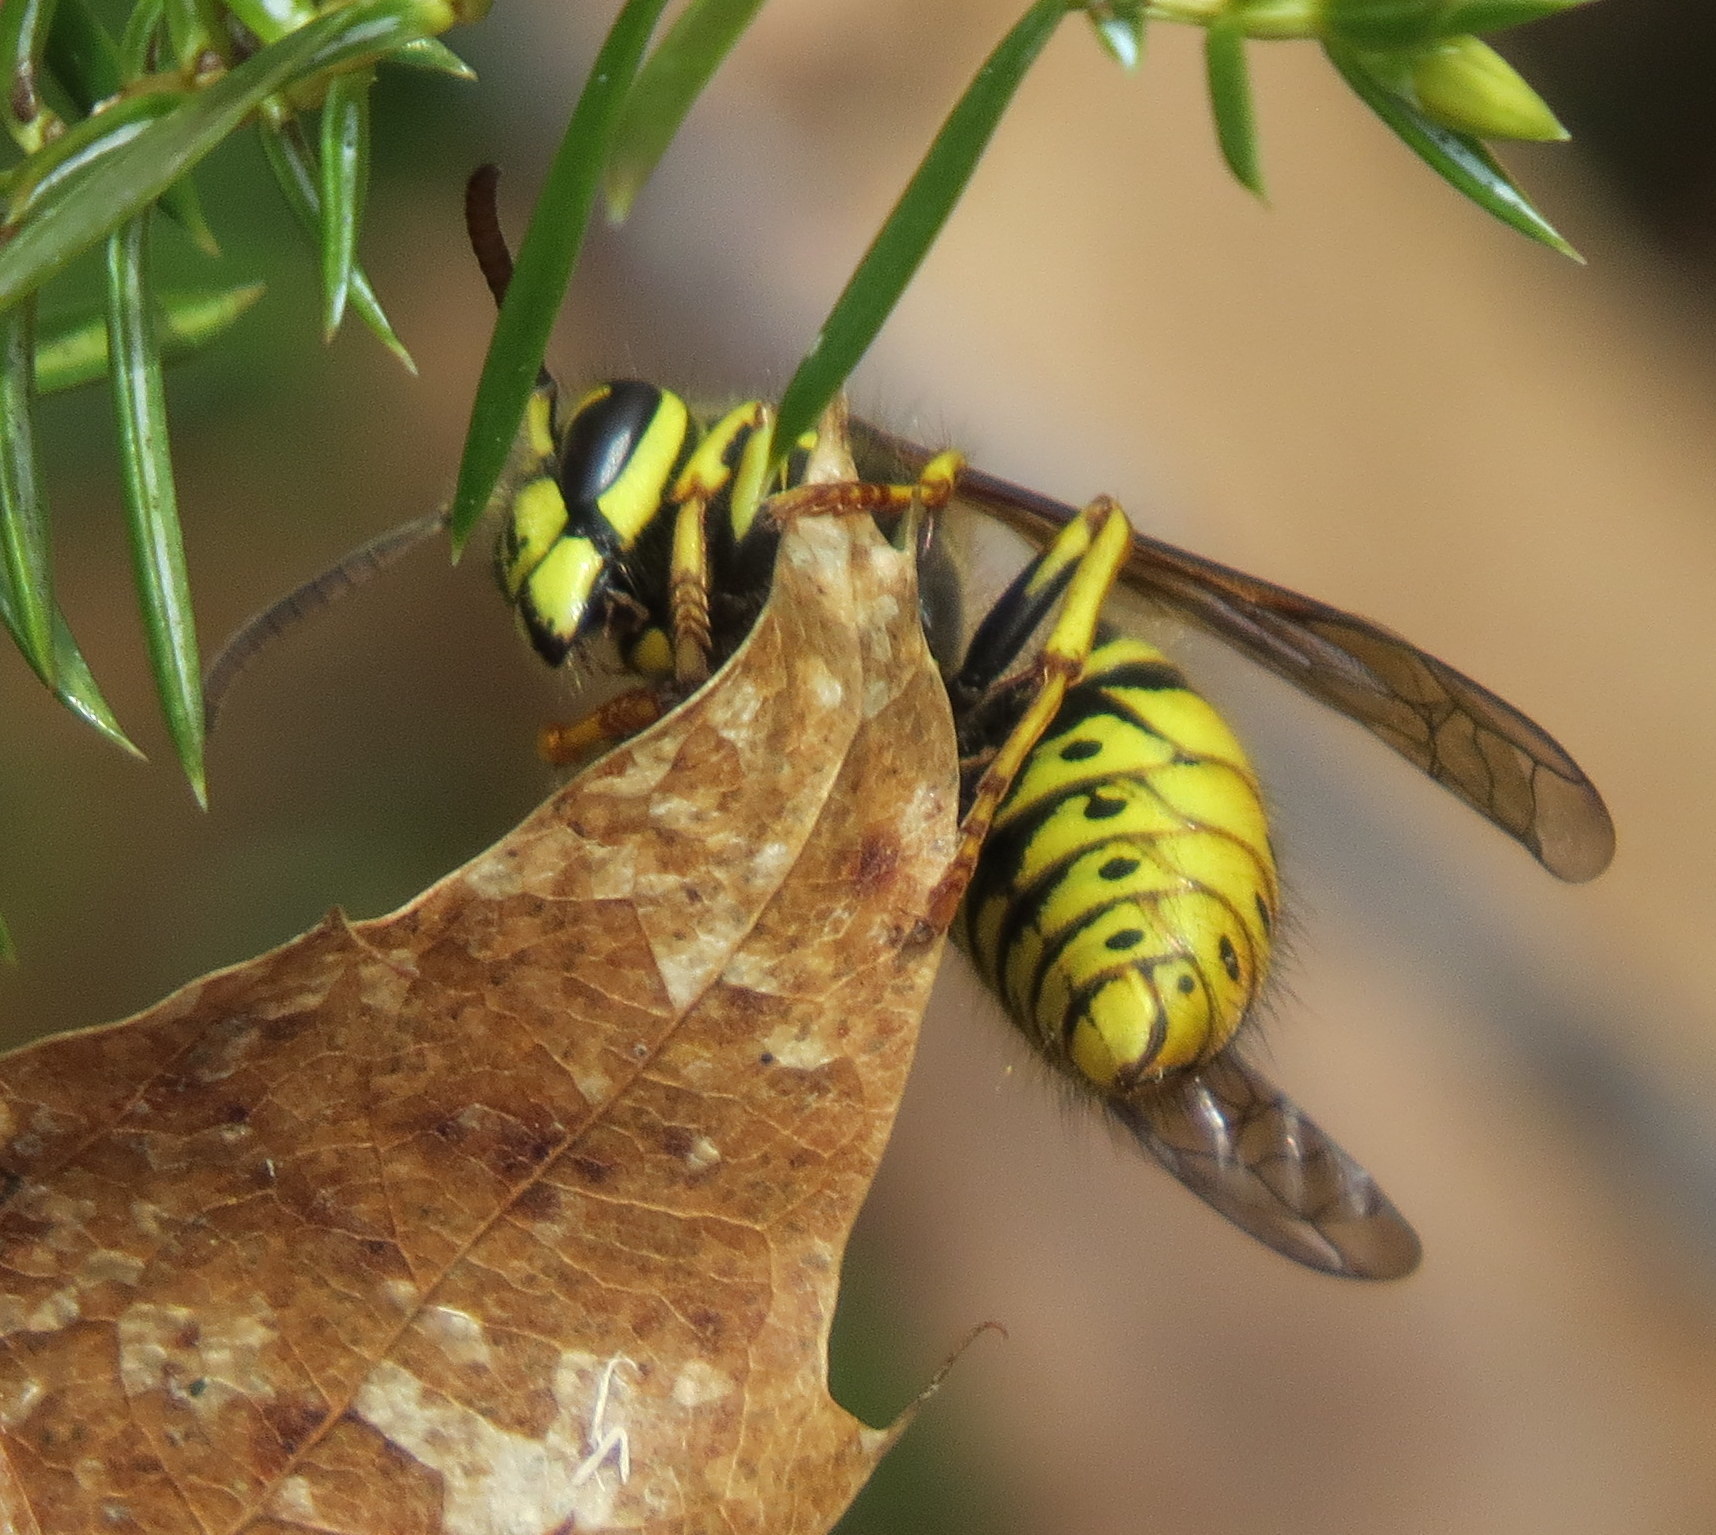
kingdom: Animalia
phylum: Arthropoda
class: Insecta
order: Hymenoptera
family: Vespidae
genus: Dolichovespula
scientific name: Dolichovespula arenaria
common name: Aerial yellowjacket
